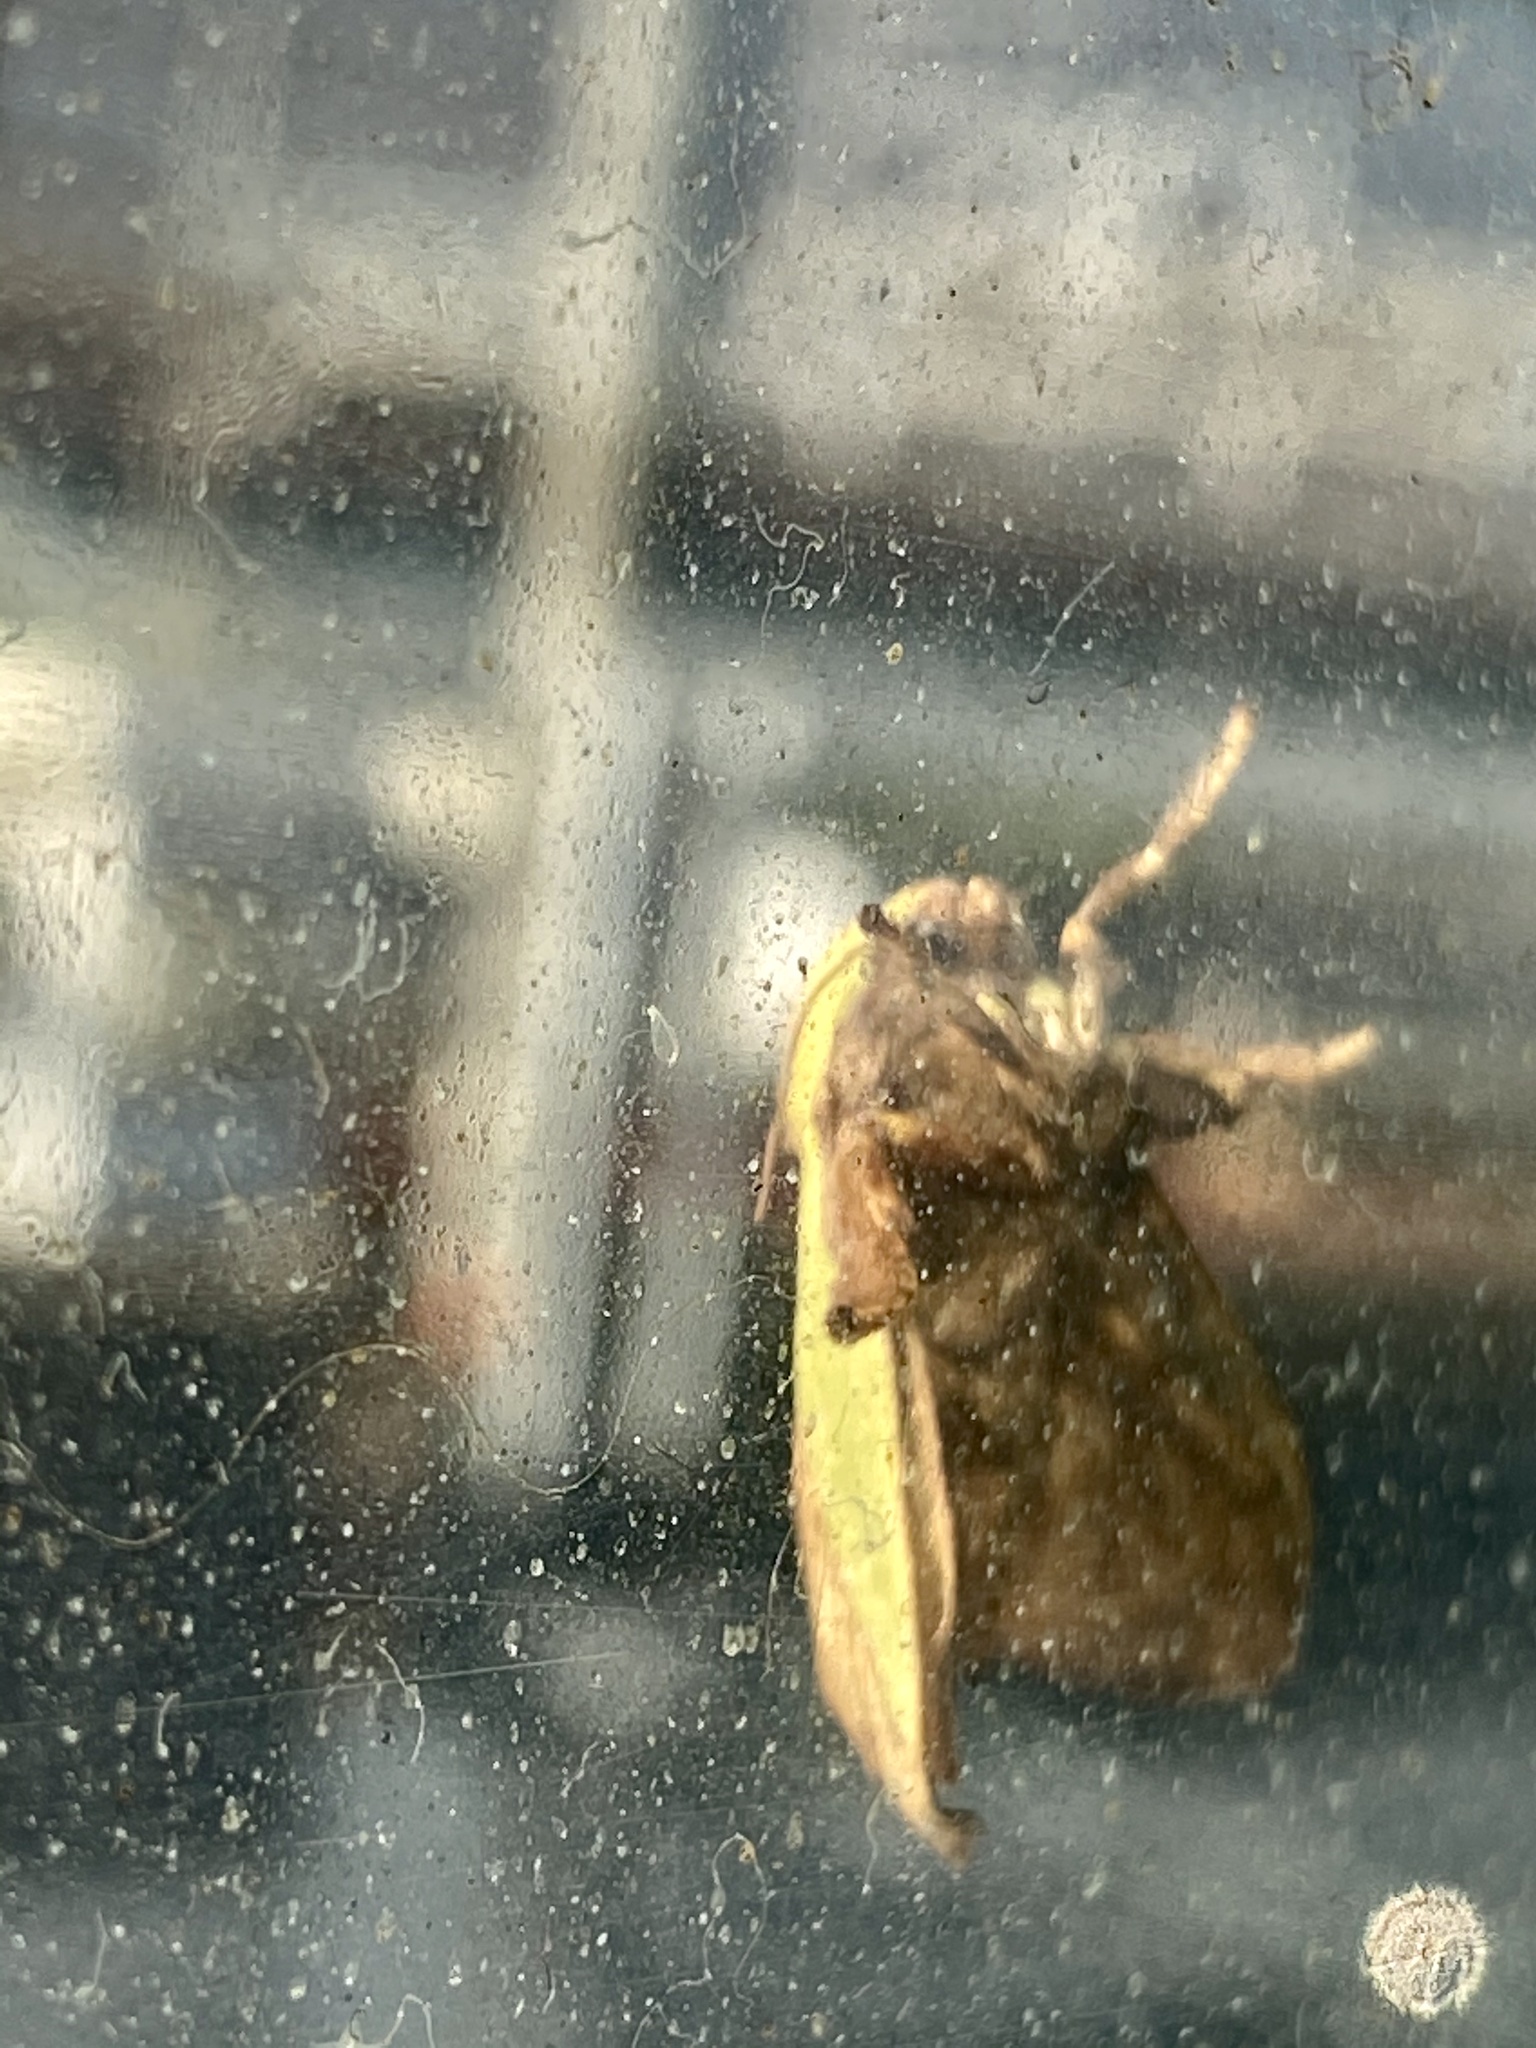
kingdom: Animalia
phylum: Arthropoda
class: Insecta
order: Lepidoptera
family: Limacodidae
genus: Parasa
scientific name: Parasa lepida
